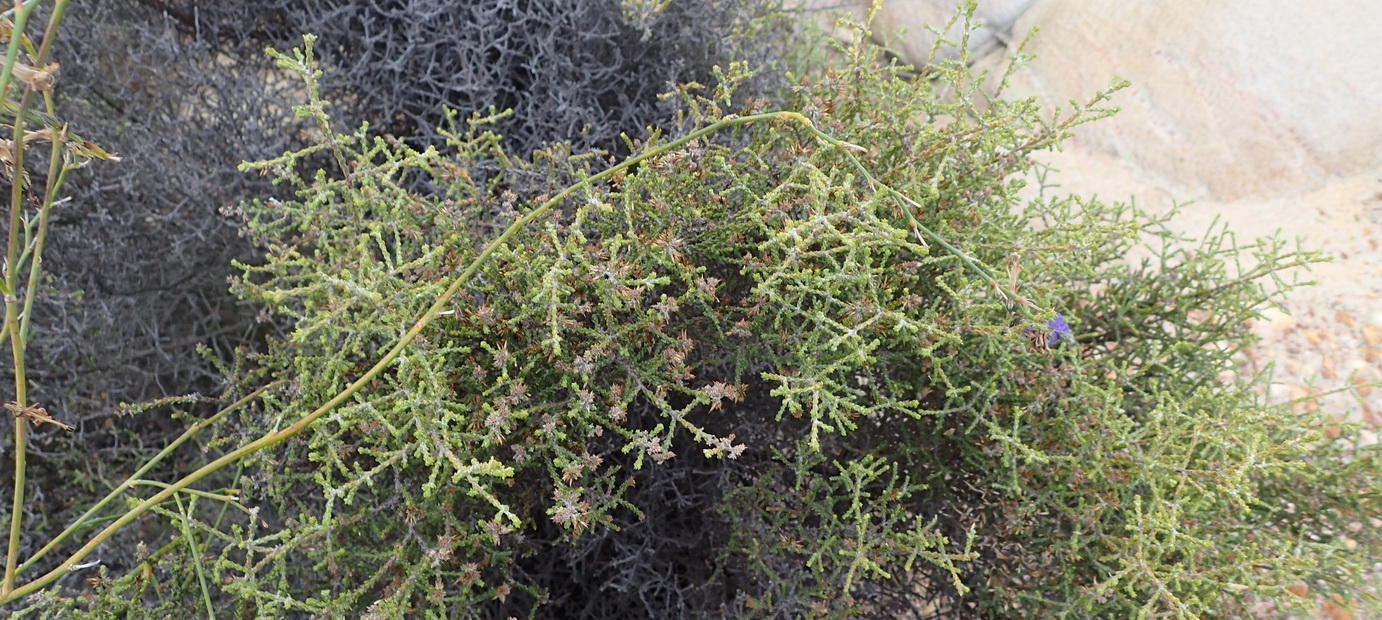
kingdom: Plantae
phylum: Tracheophyta
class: Magnoliopsida
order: Asterales
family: Asteraceae
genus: Myrovernix
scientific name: Myrovernix scaber
